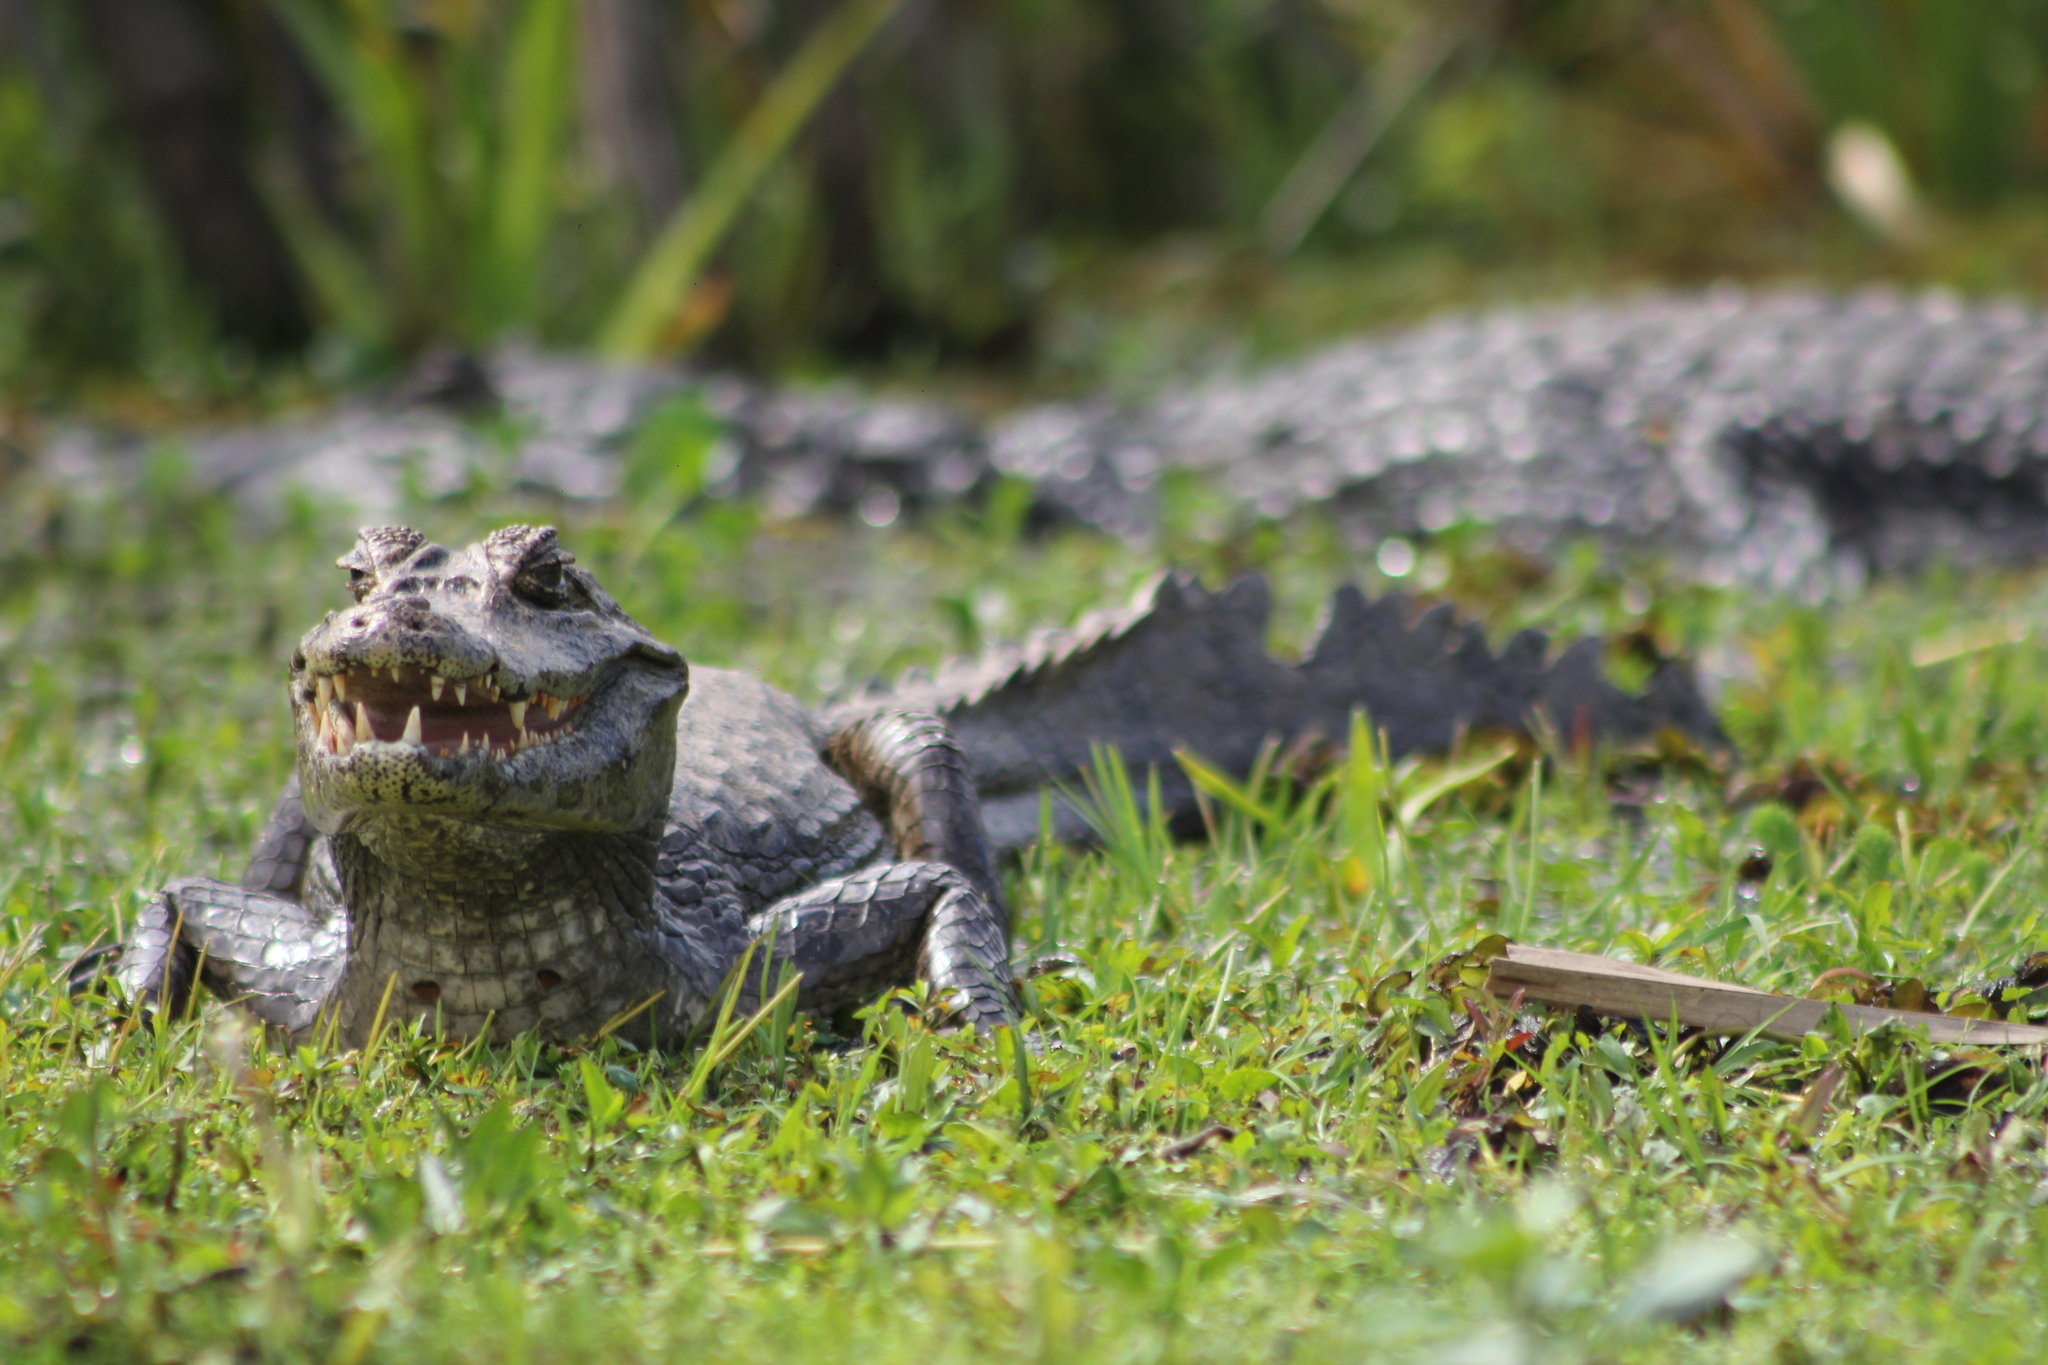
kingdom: Animalia
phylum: Chordata
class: Crocodylia
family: Alligatoridae
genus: Caiman
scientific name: Caiman yacare
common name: Yacare caiman
